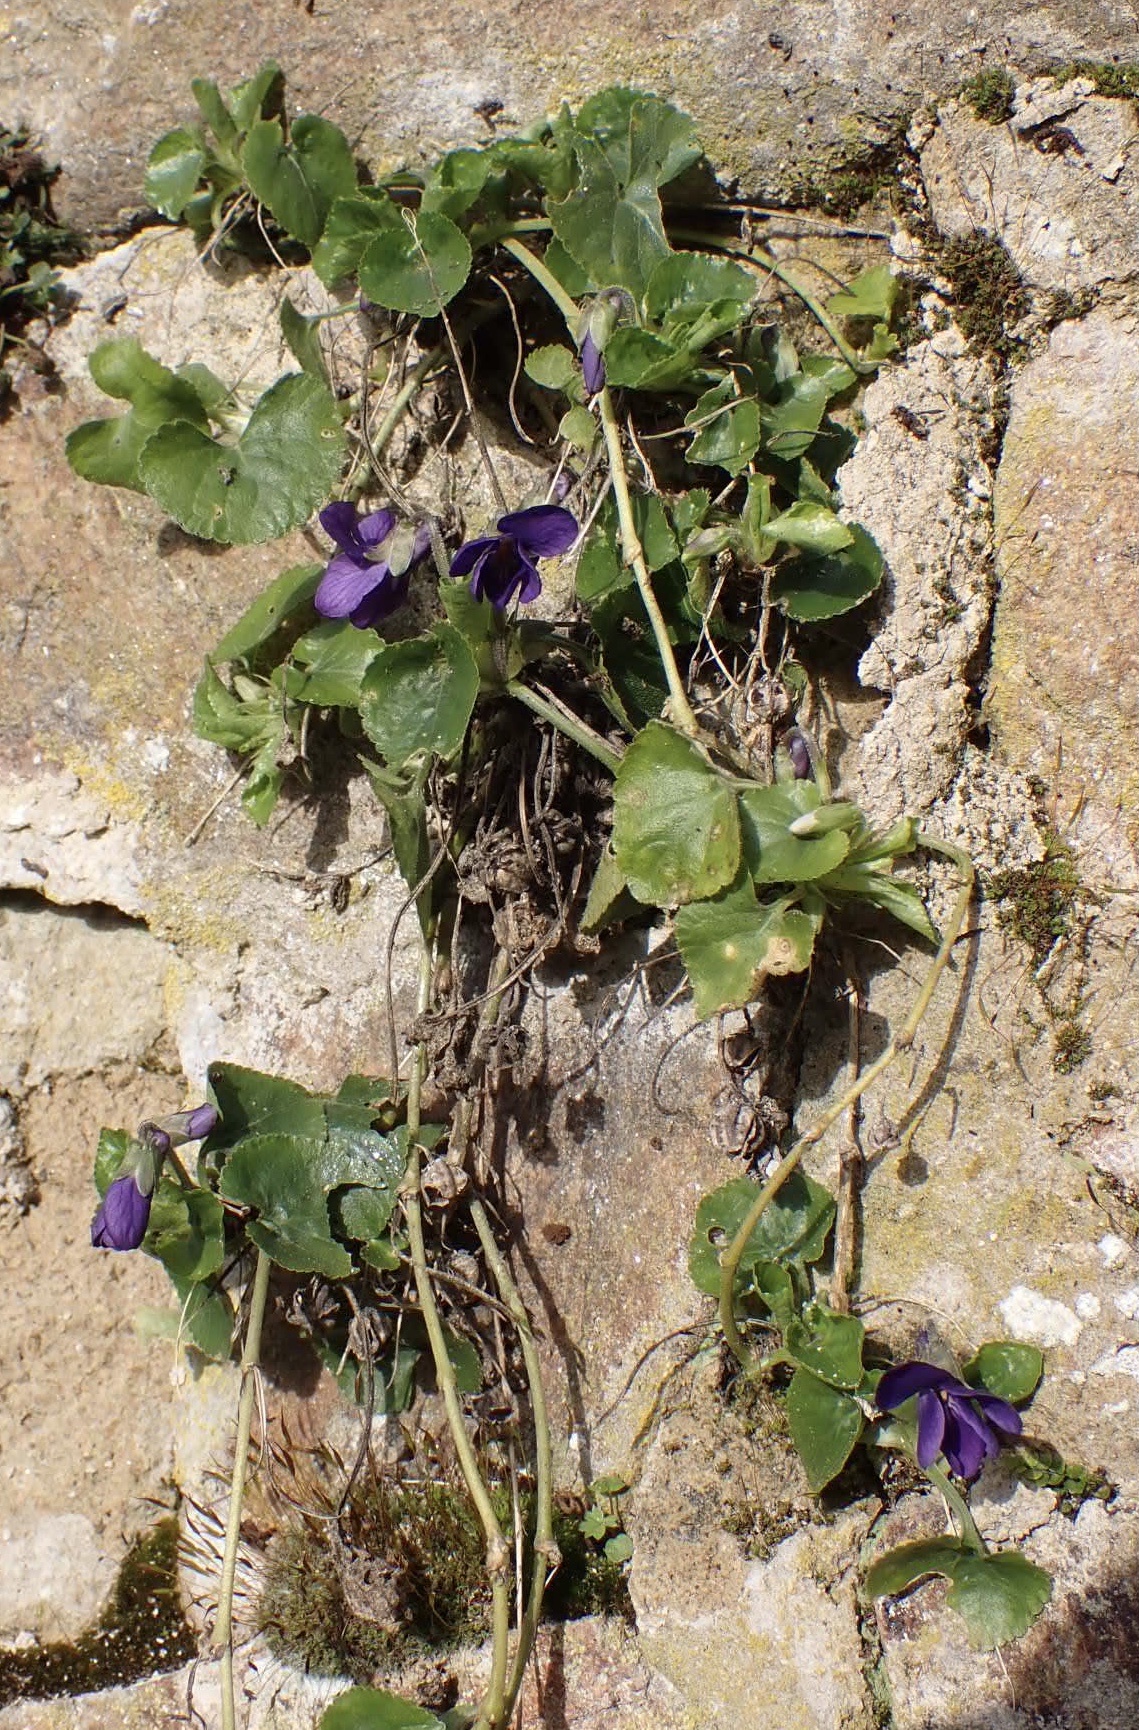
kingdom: Plantae
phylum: Tracheophyta
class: Magnoliopsida
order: Malpighiales
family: Violaceae
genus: Viola
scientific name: Viola odorata
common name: Sweet violet
